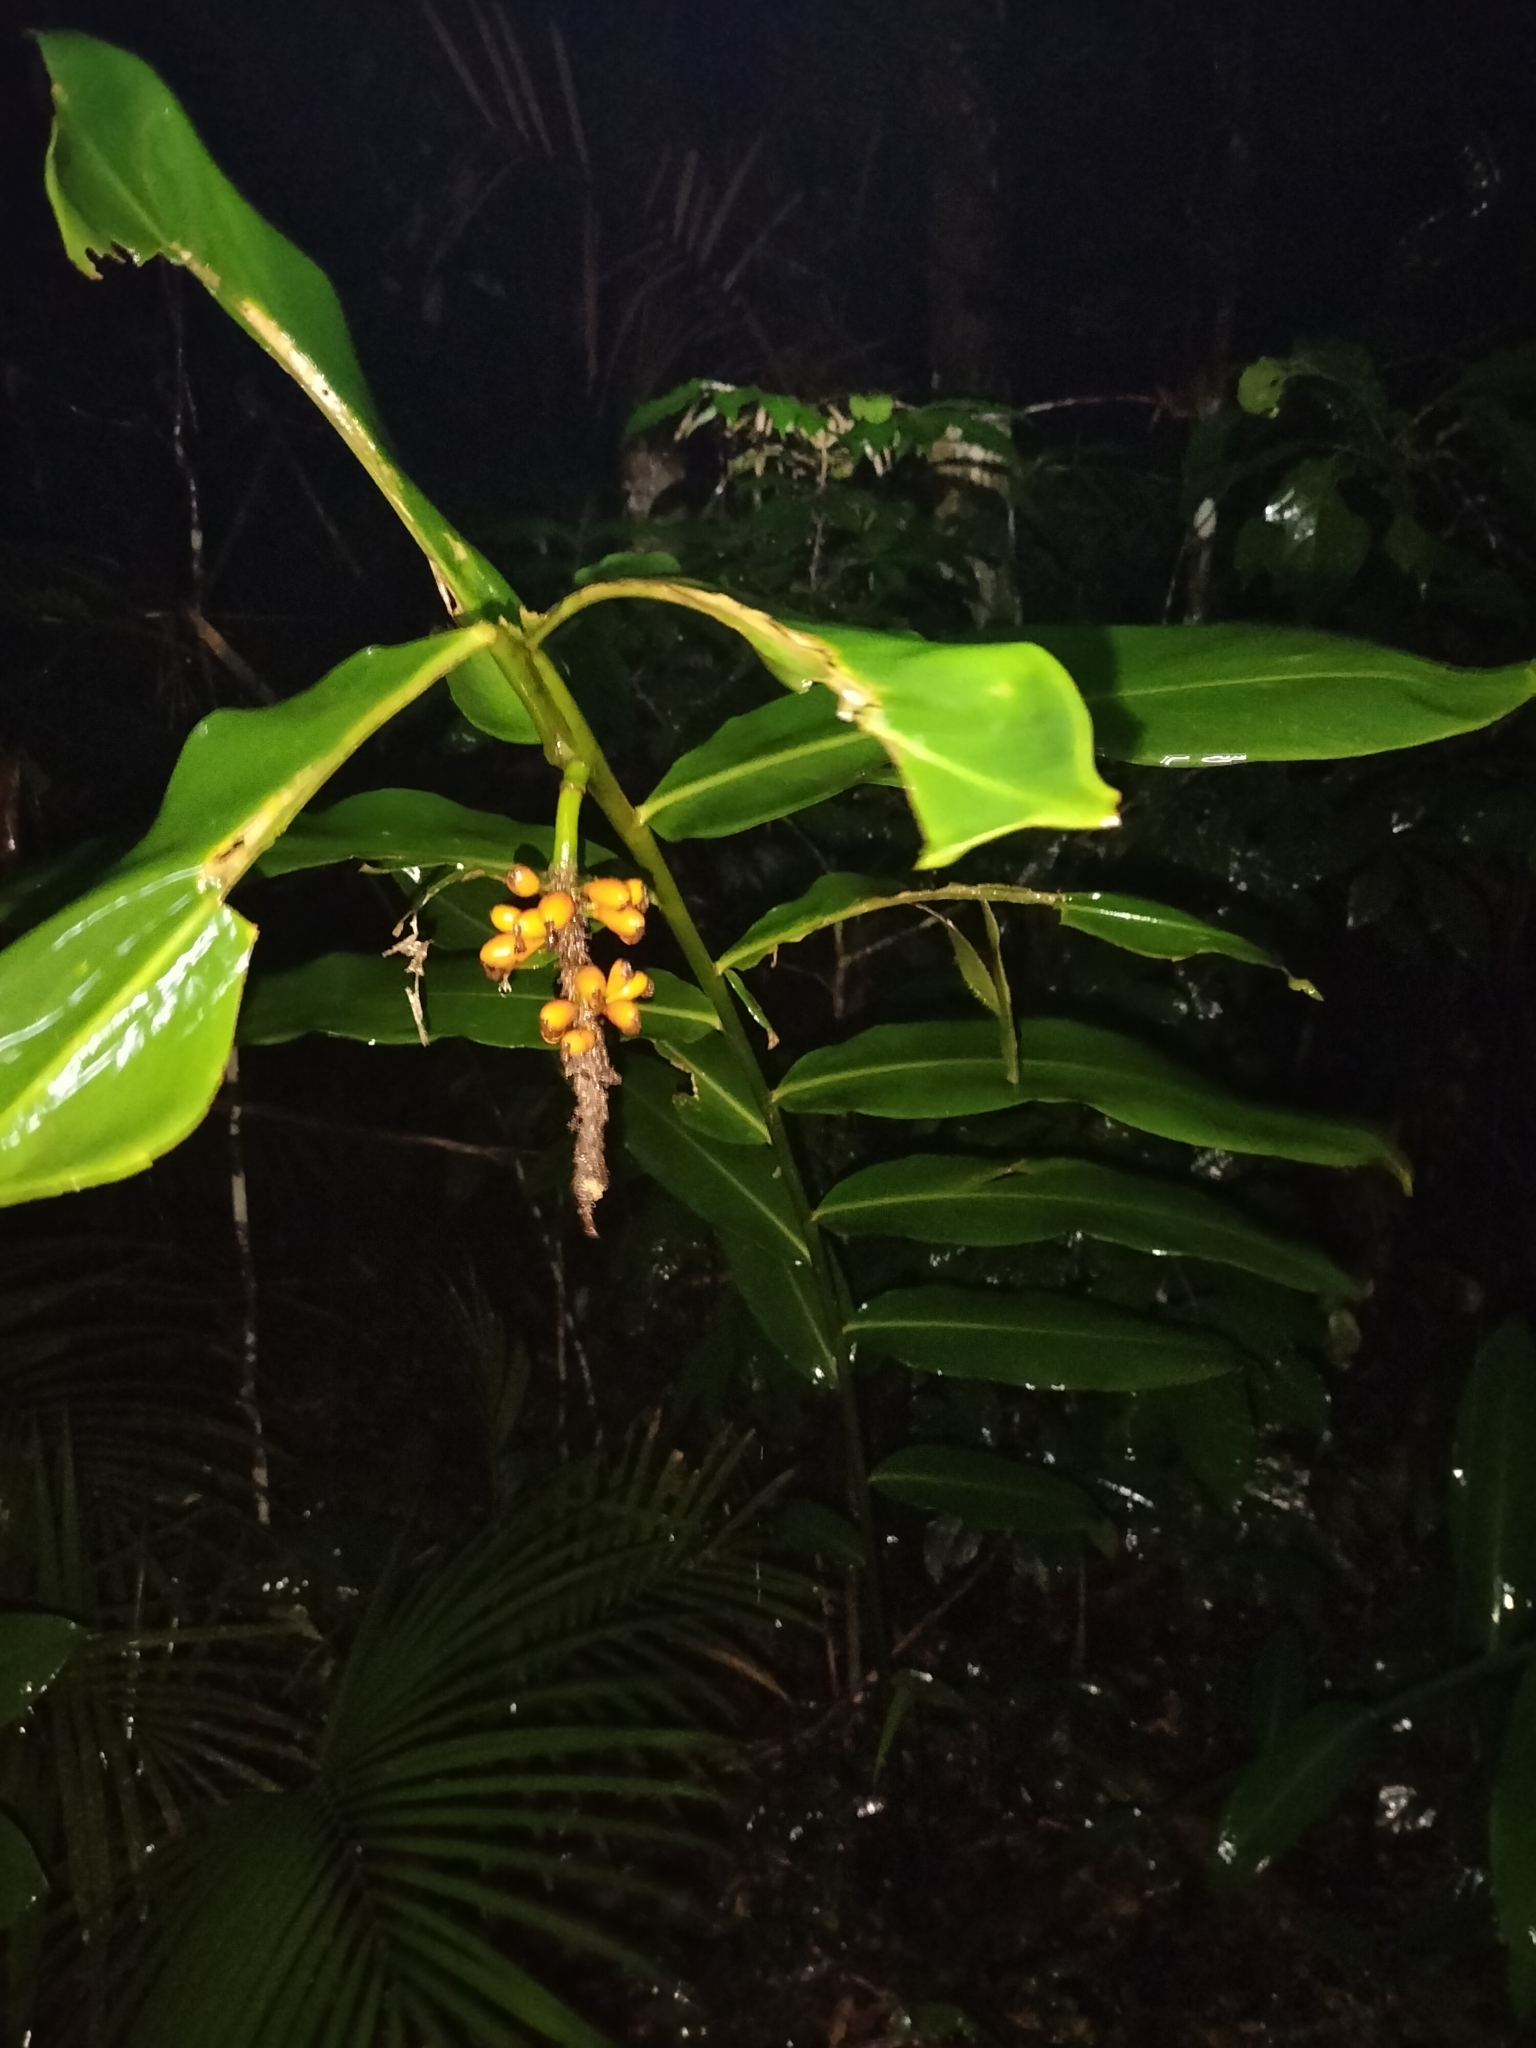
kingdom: Plantae
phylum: Tracheophyta
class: Liliopsida
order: Zingiberales
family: Zingiberaceae
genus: Pleuranthodium
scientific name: Pleuranthodium racemigerum
